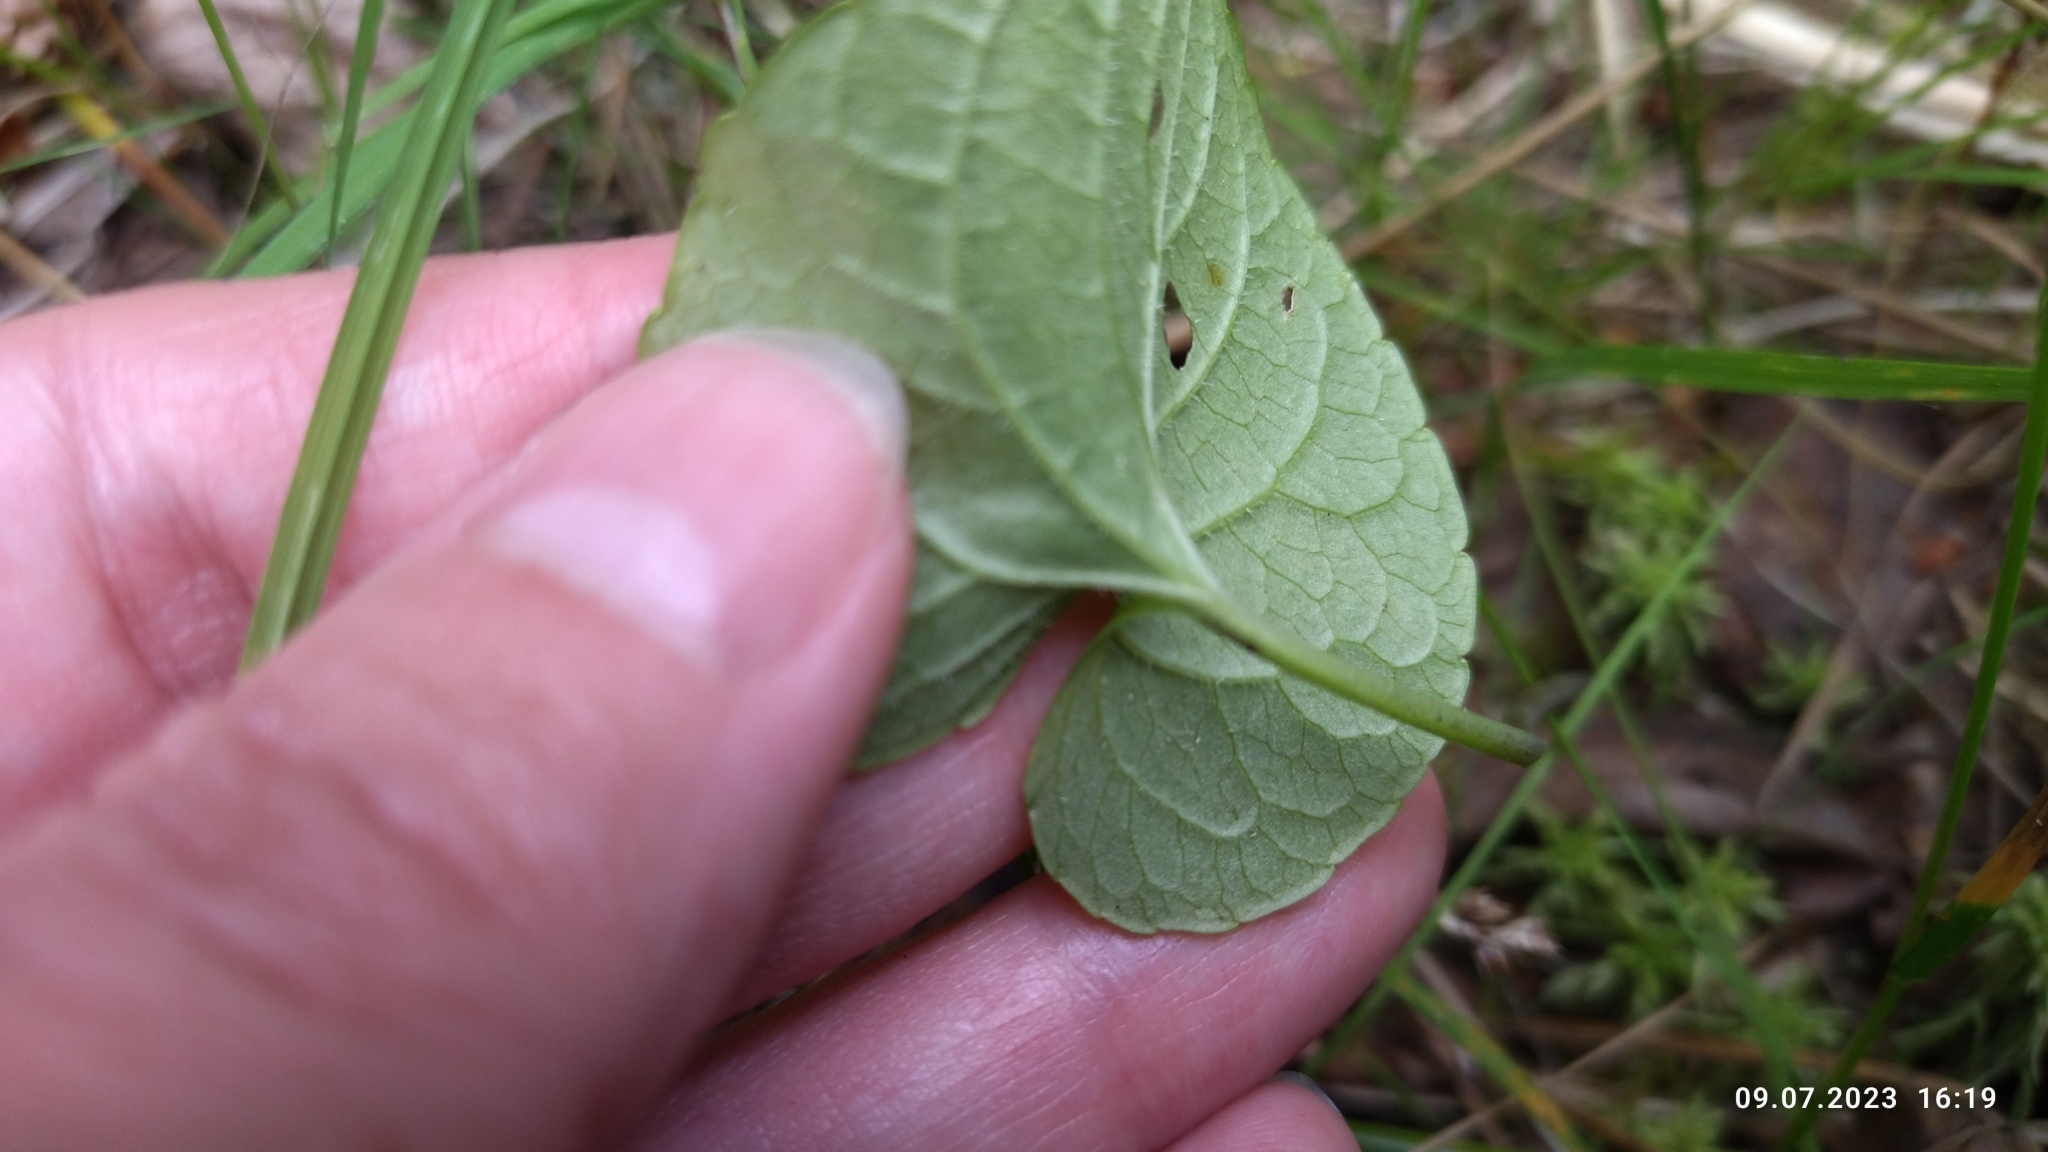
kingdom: Plantae
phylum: Tracheophyta
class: Magnoliopsida
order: Malpighiales
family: Violaceae
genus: Viola
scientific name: Viola epipsila
